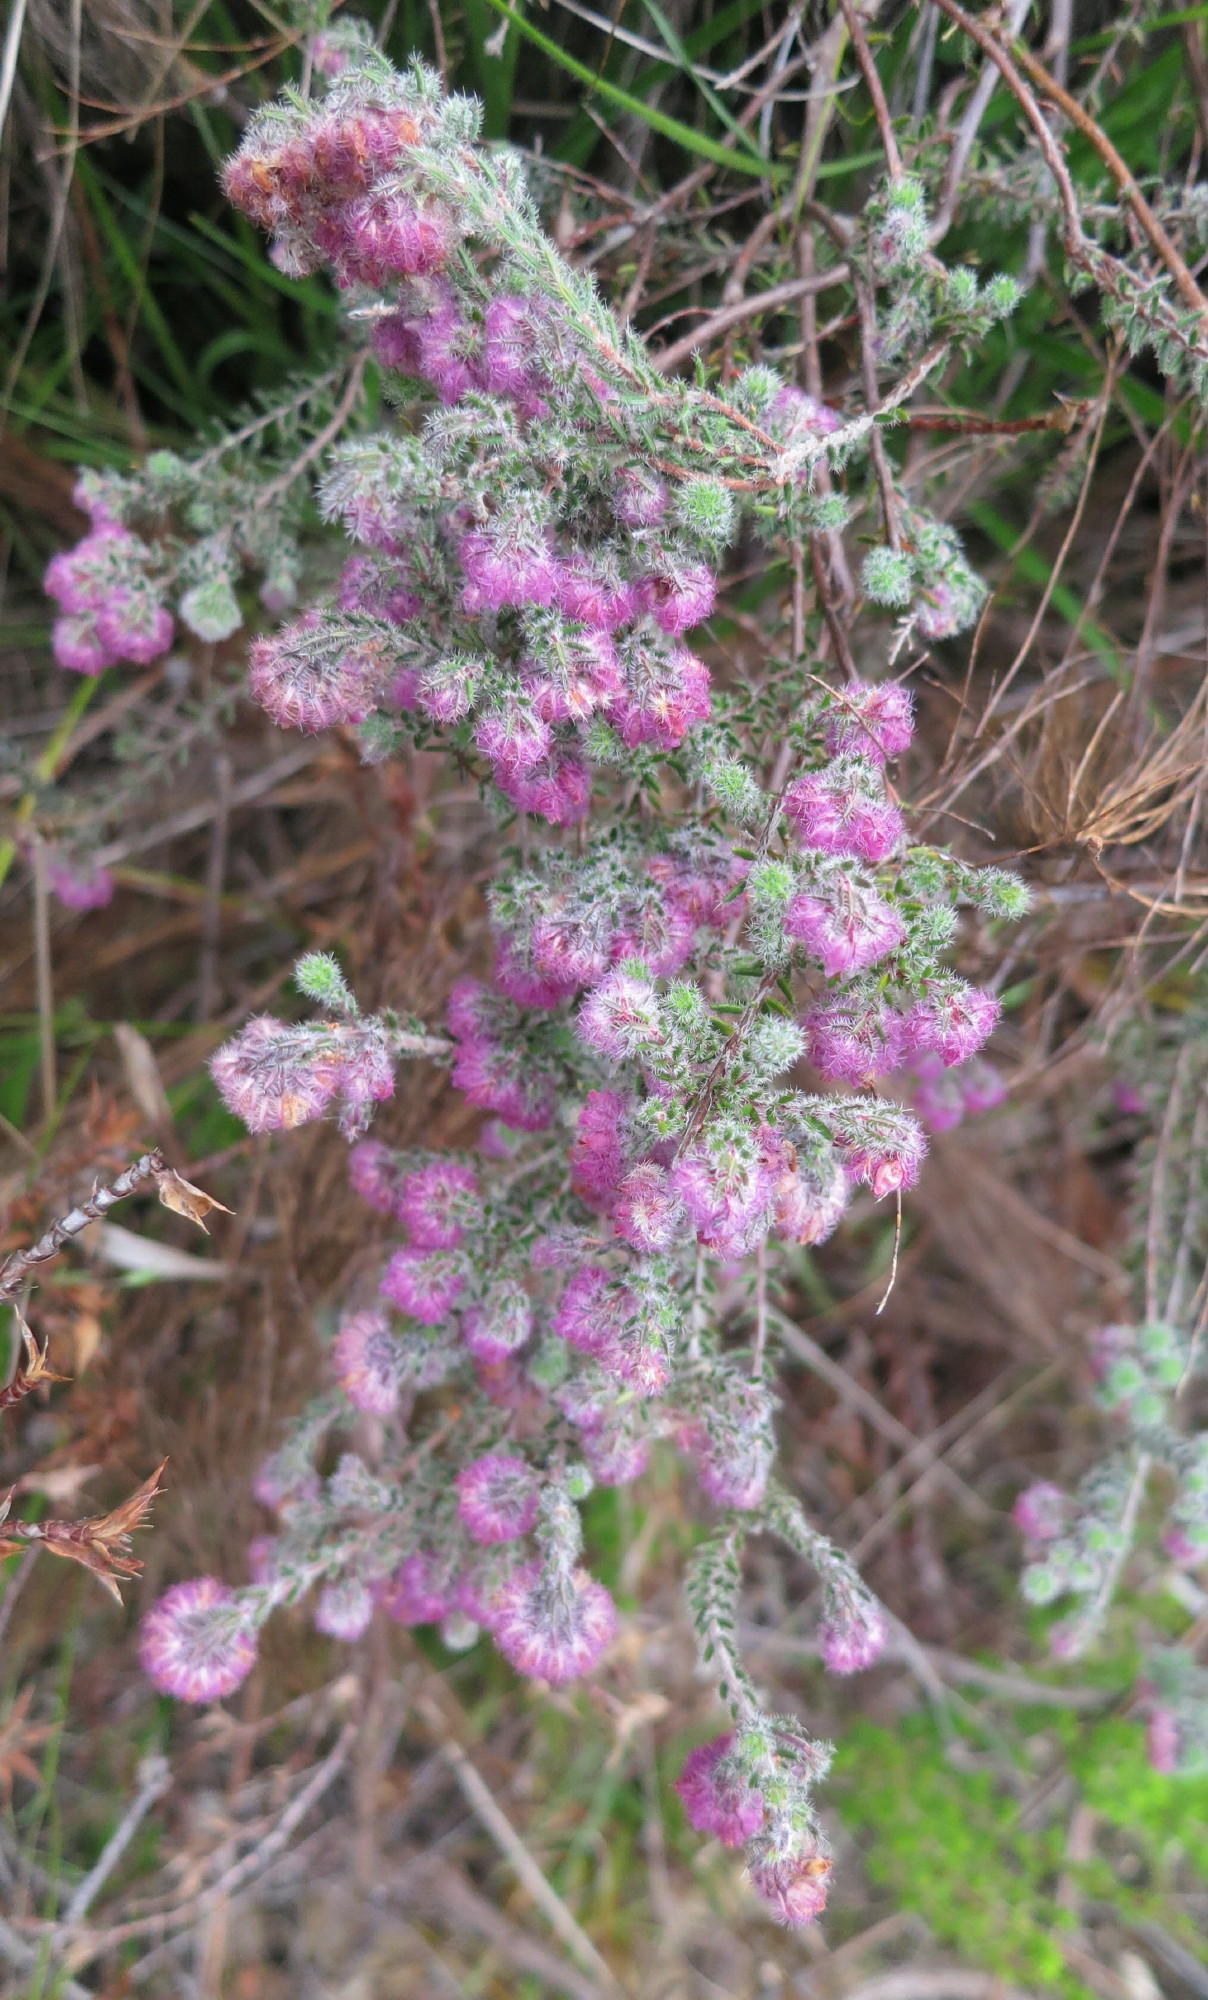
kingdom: Plantae
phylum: Tracheophyta
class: Magnoliopsida
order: Ericales
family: Ericaceae
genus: Erica
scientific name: Erica solandra
